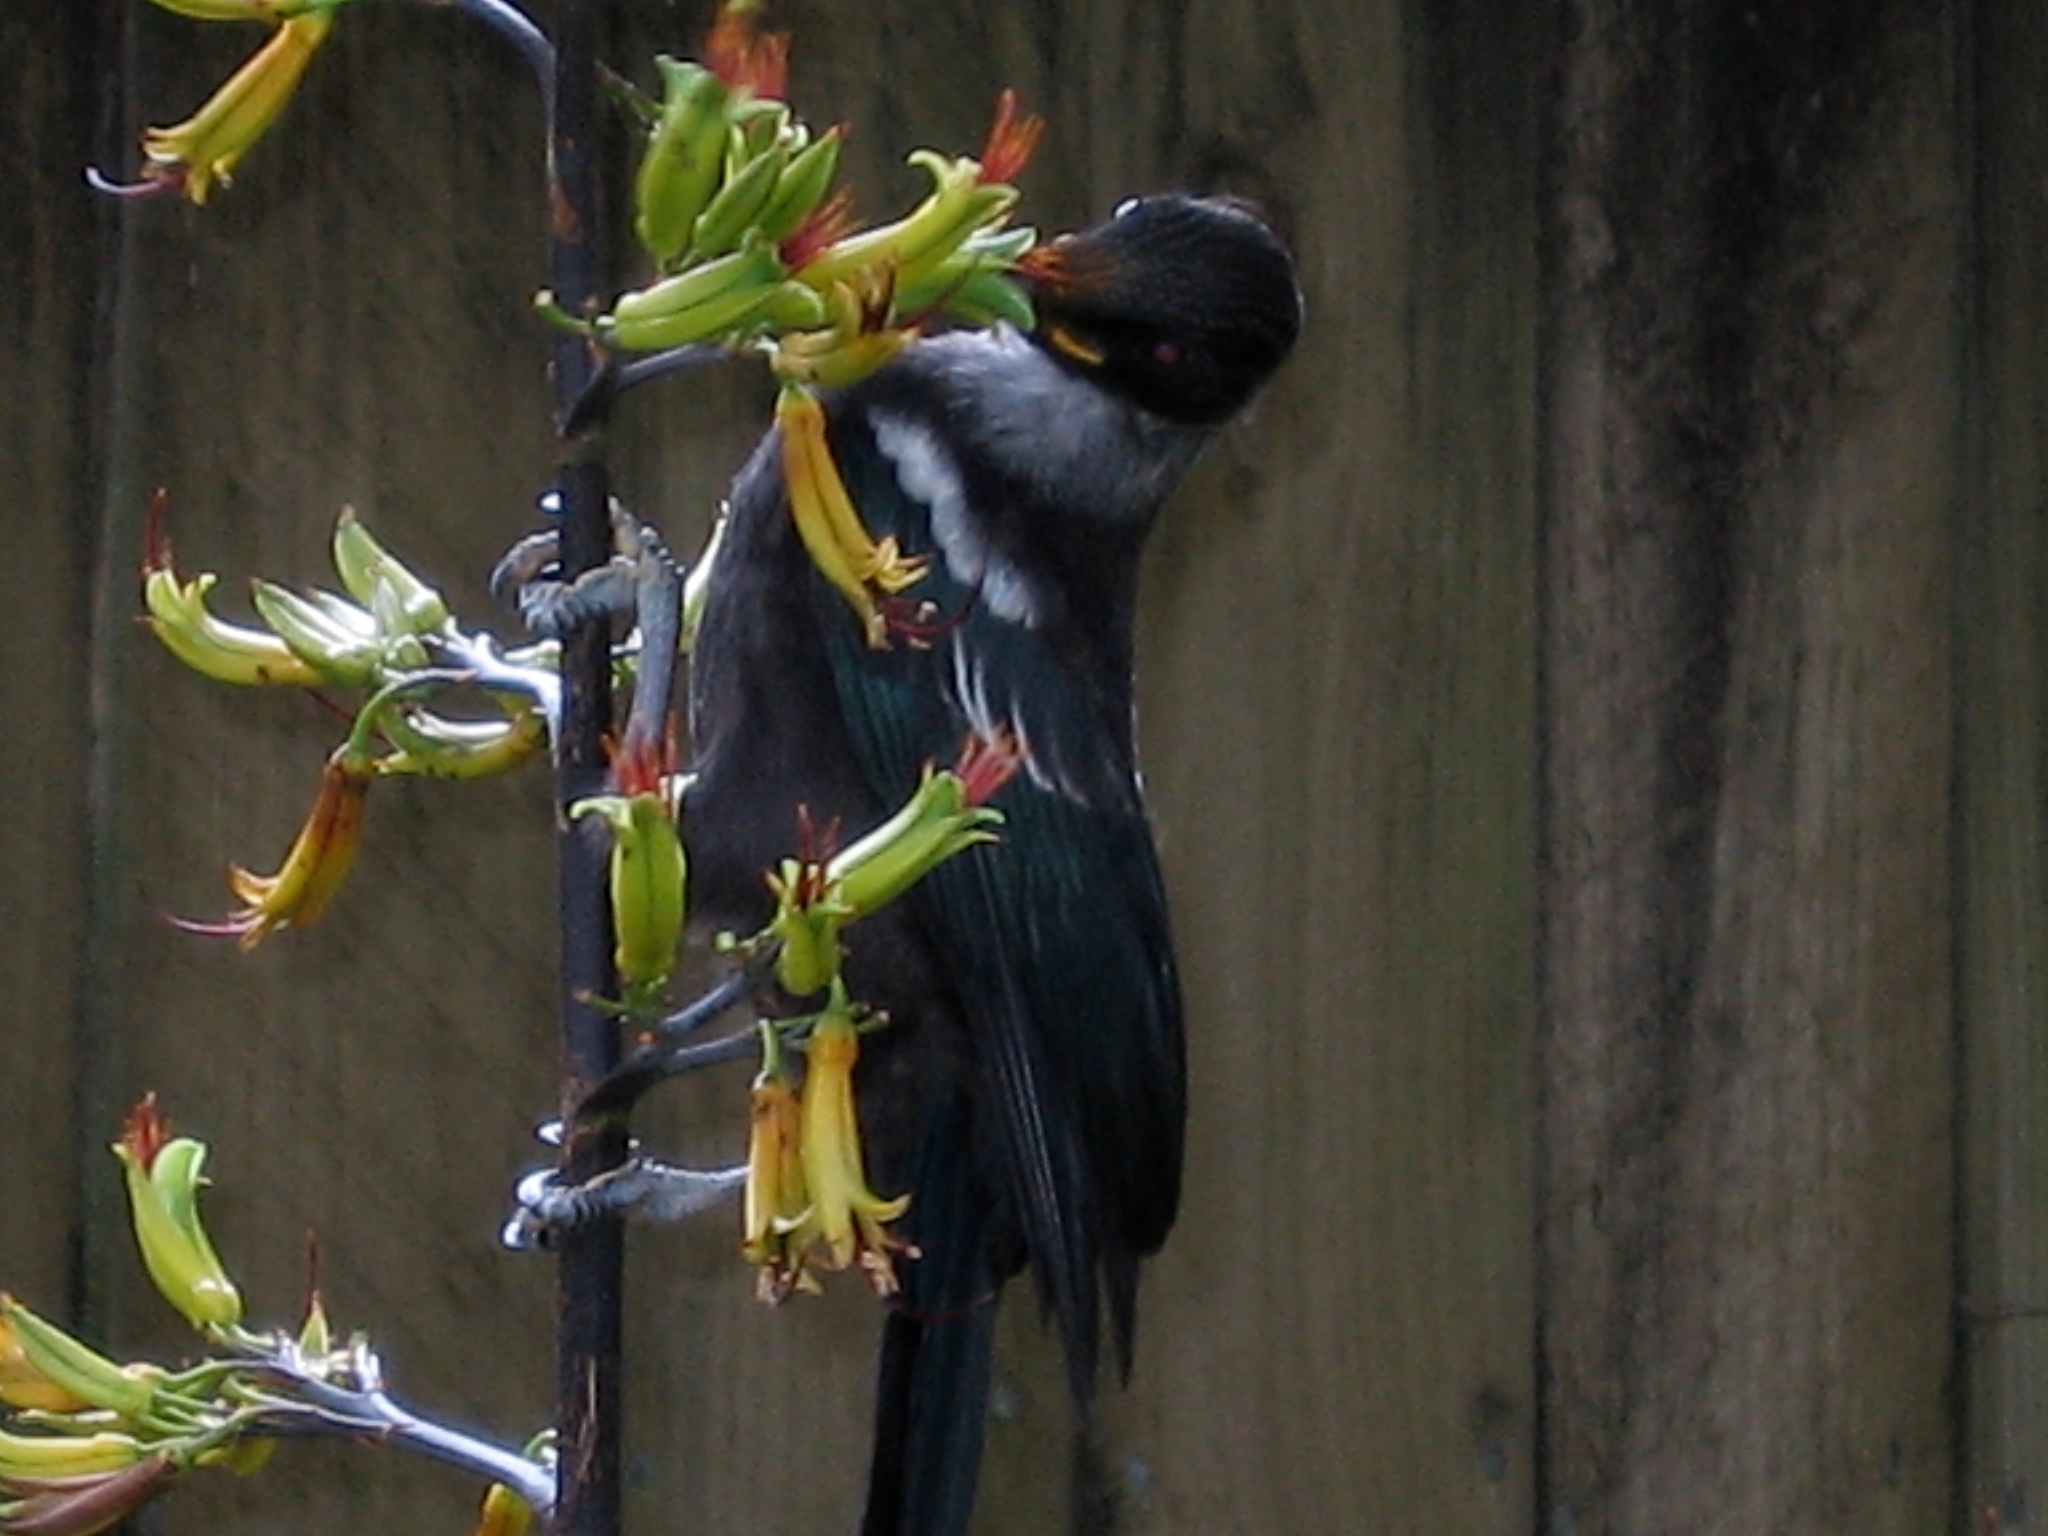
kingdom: Animalia
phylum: Chordata
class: Aves
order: Passeriformes
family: Meliphagidae
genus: Prosthemadera
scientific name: Prosthemadera novaeseelandiae
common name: Tui
